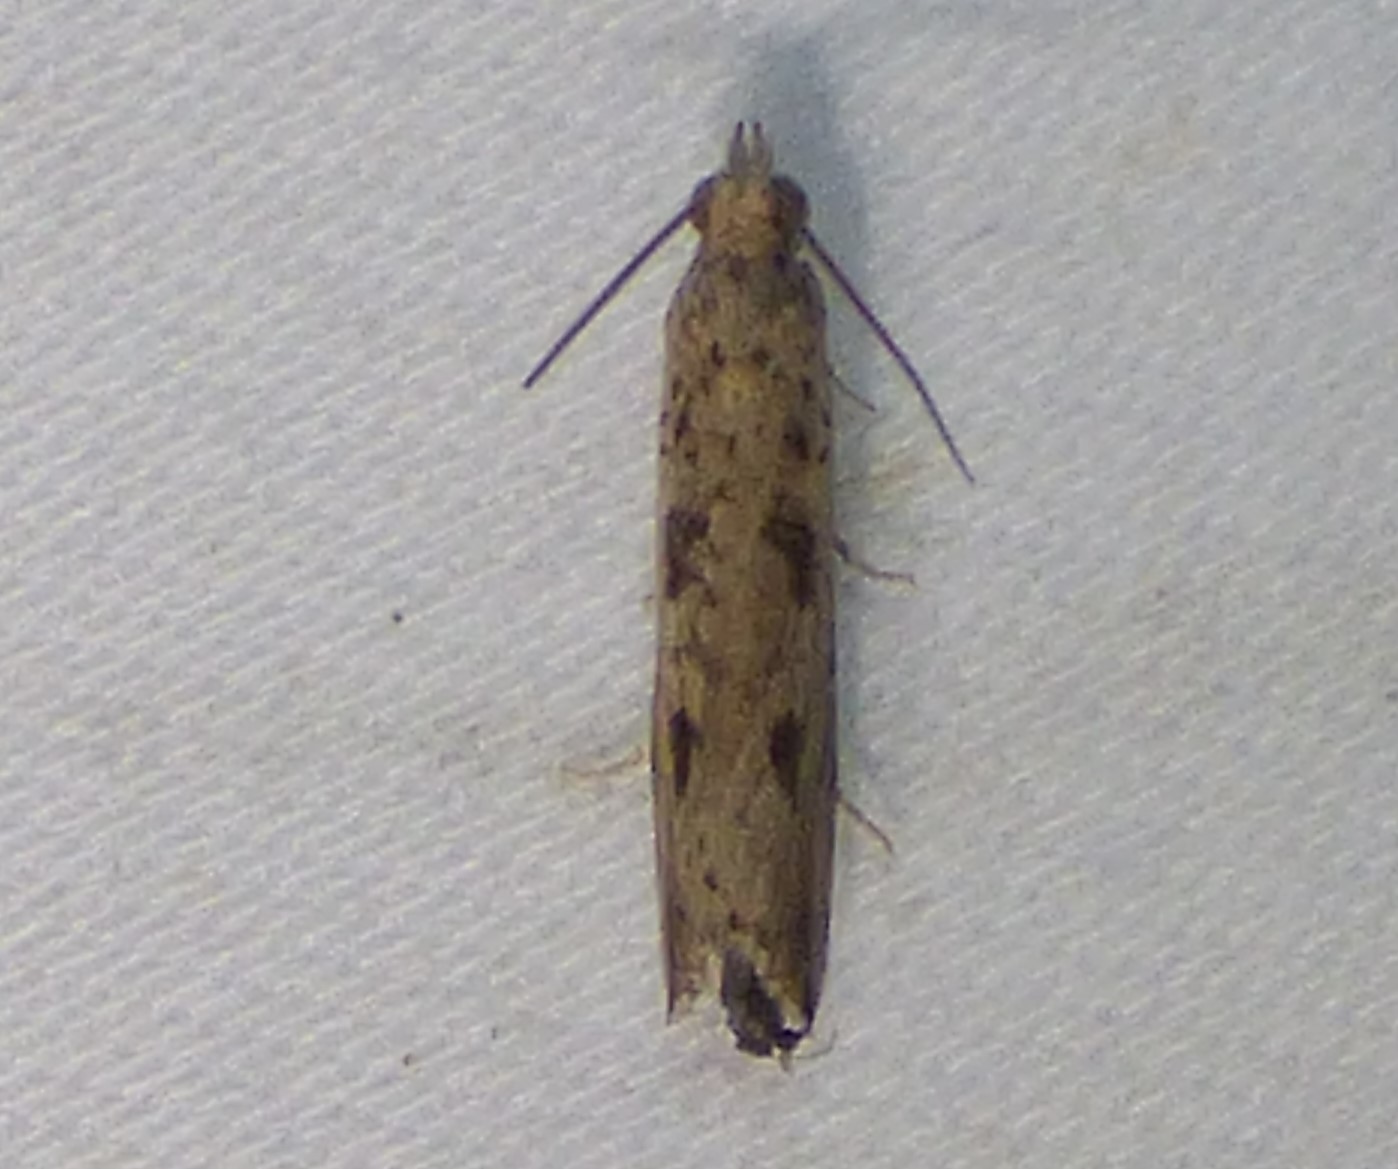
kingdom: Animalia
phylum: Arthropoda
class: Insecta
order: Lepidoptera
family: Tortricidae
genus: Bactra
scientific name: Bactra verutana
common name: Javelin moth
